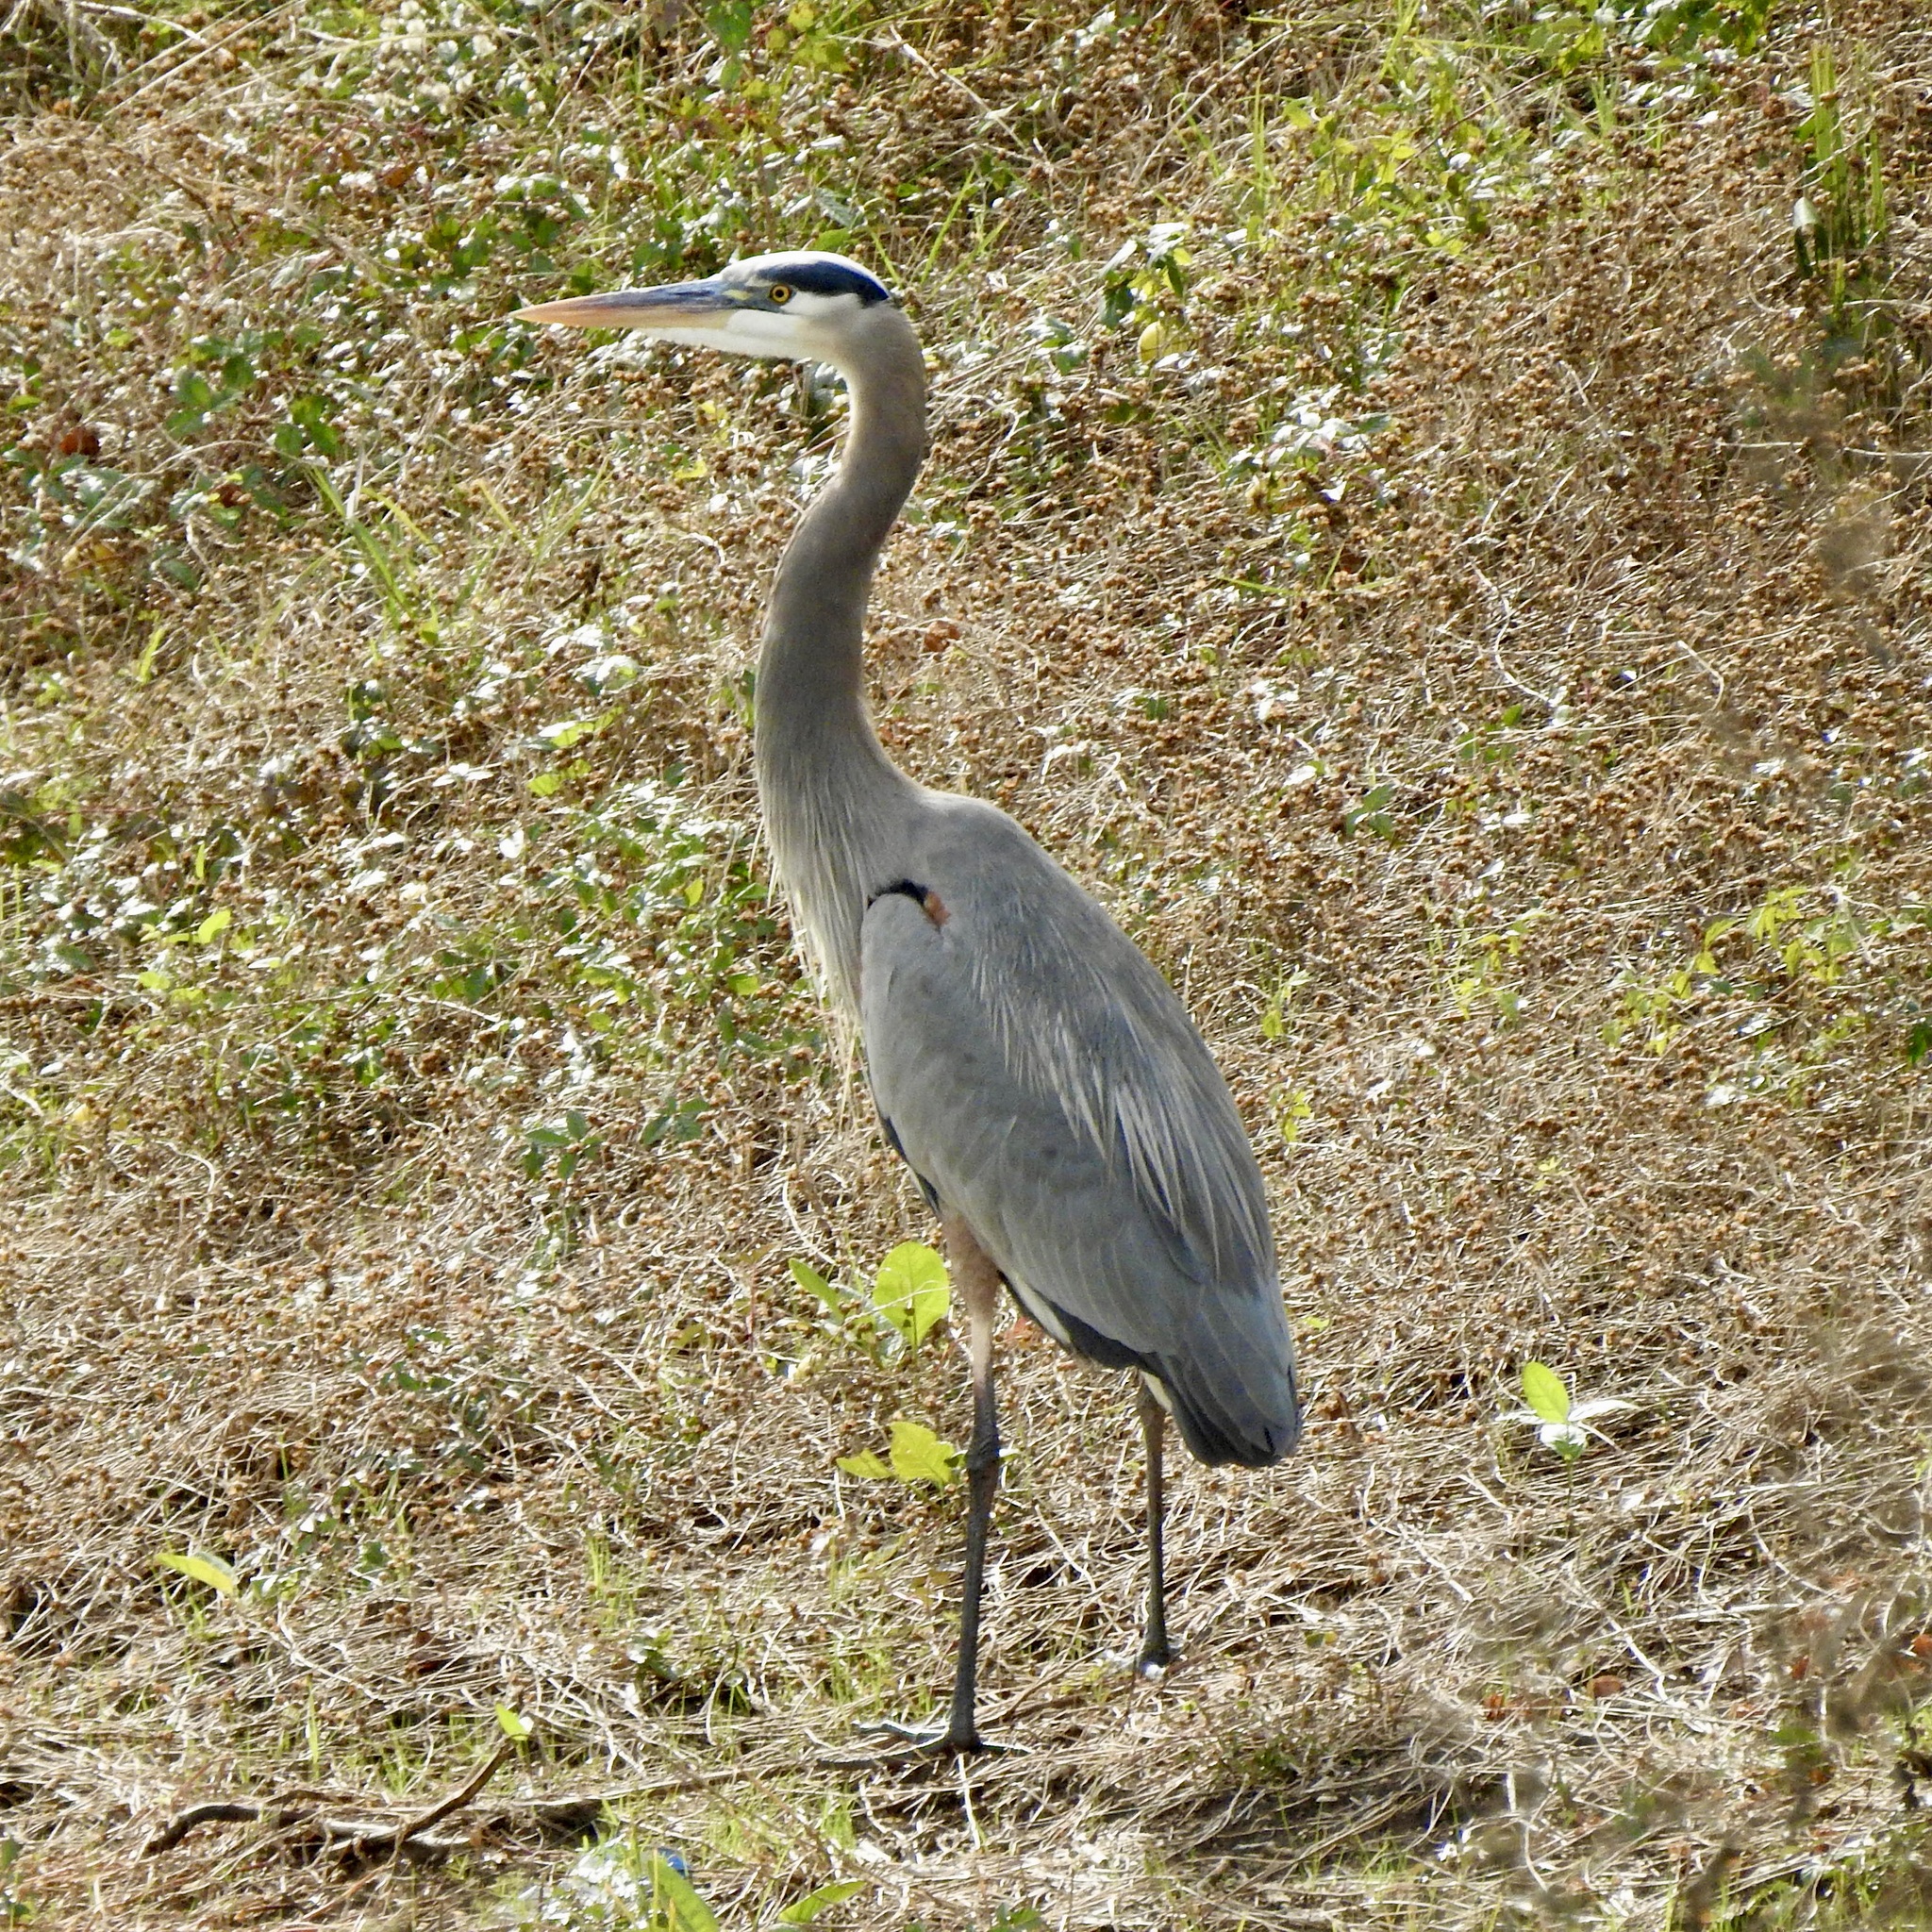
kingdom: Animalia
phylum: Chordata
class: Aves
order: Pelecaniformes
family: Ardeidae
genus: Ardea
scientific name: Ardea herodias
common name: Great blue heron
